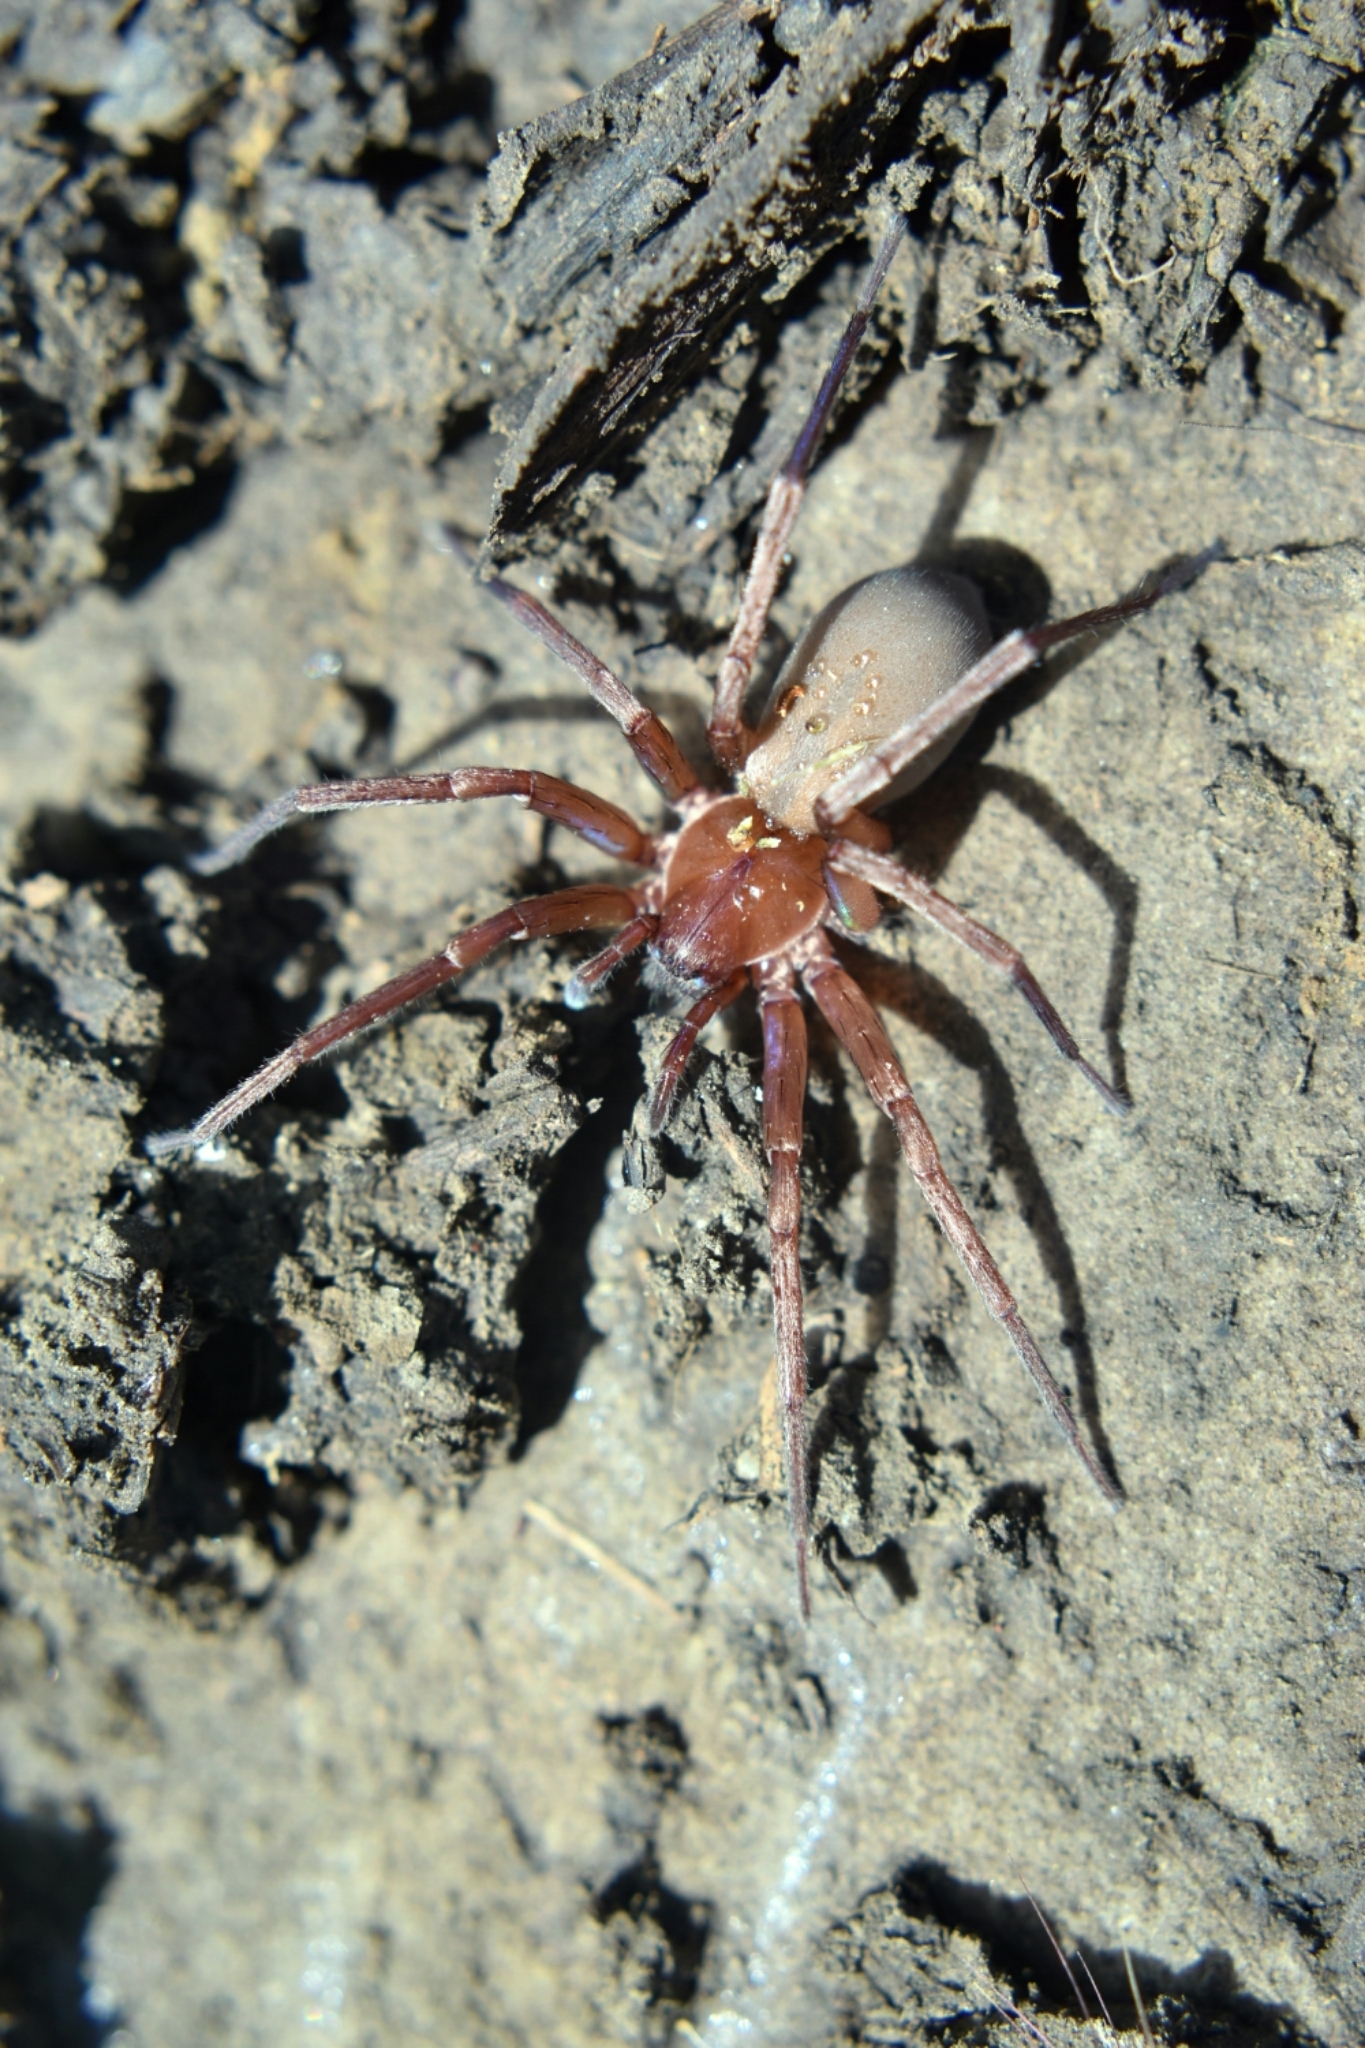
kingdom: Animalia
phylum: Arthropoda
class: Arachnida
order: Araneae
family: Zoropsidae
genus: Titiotus
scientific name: Titiotus
